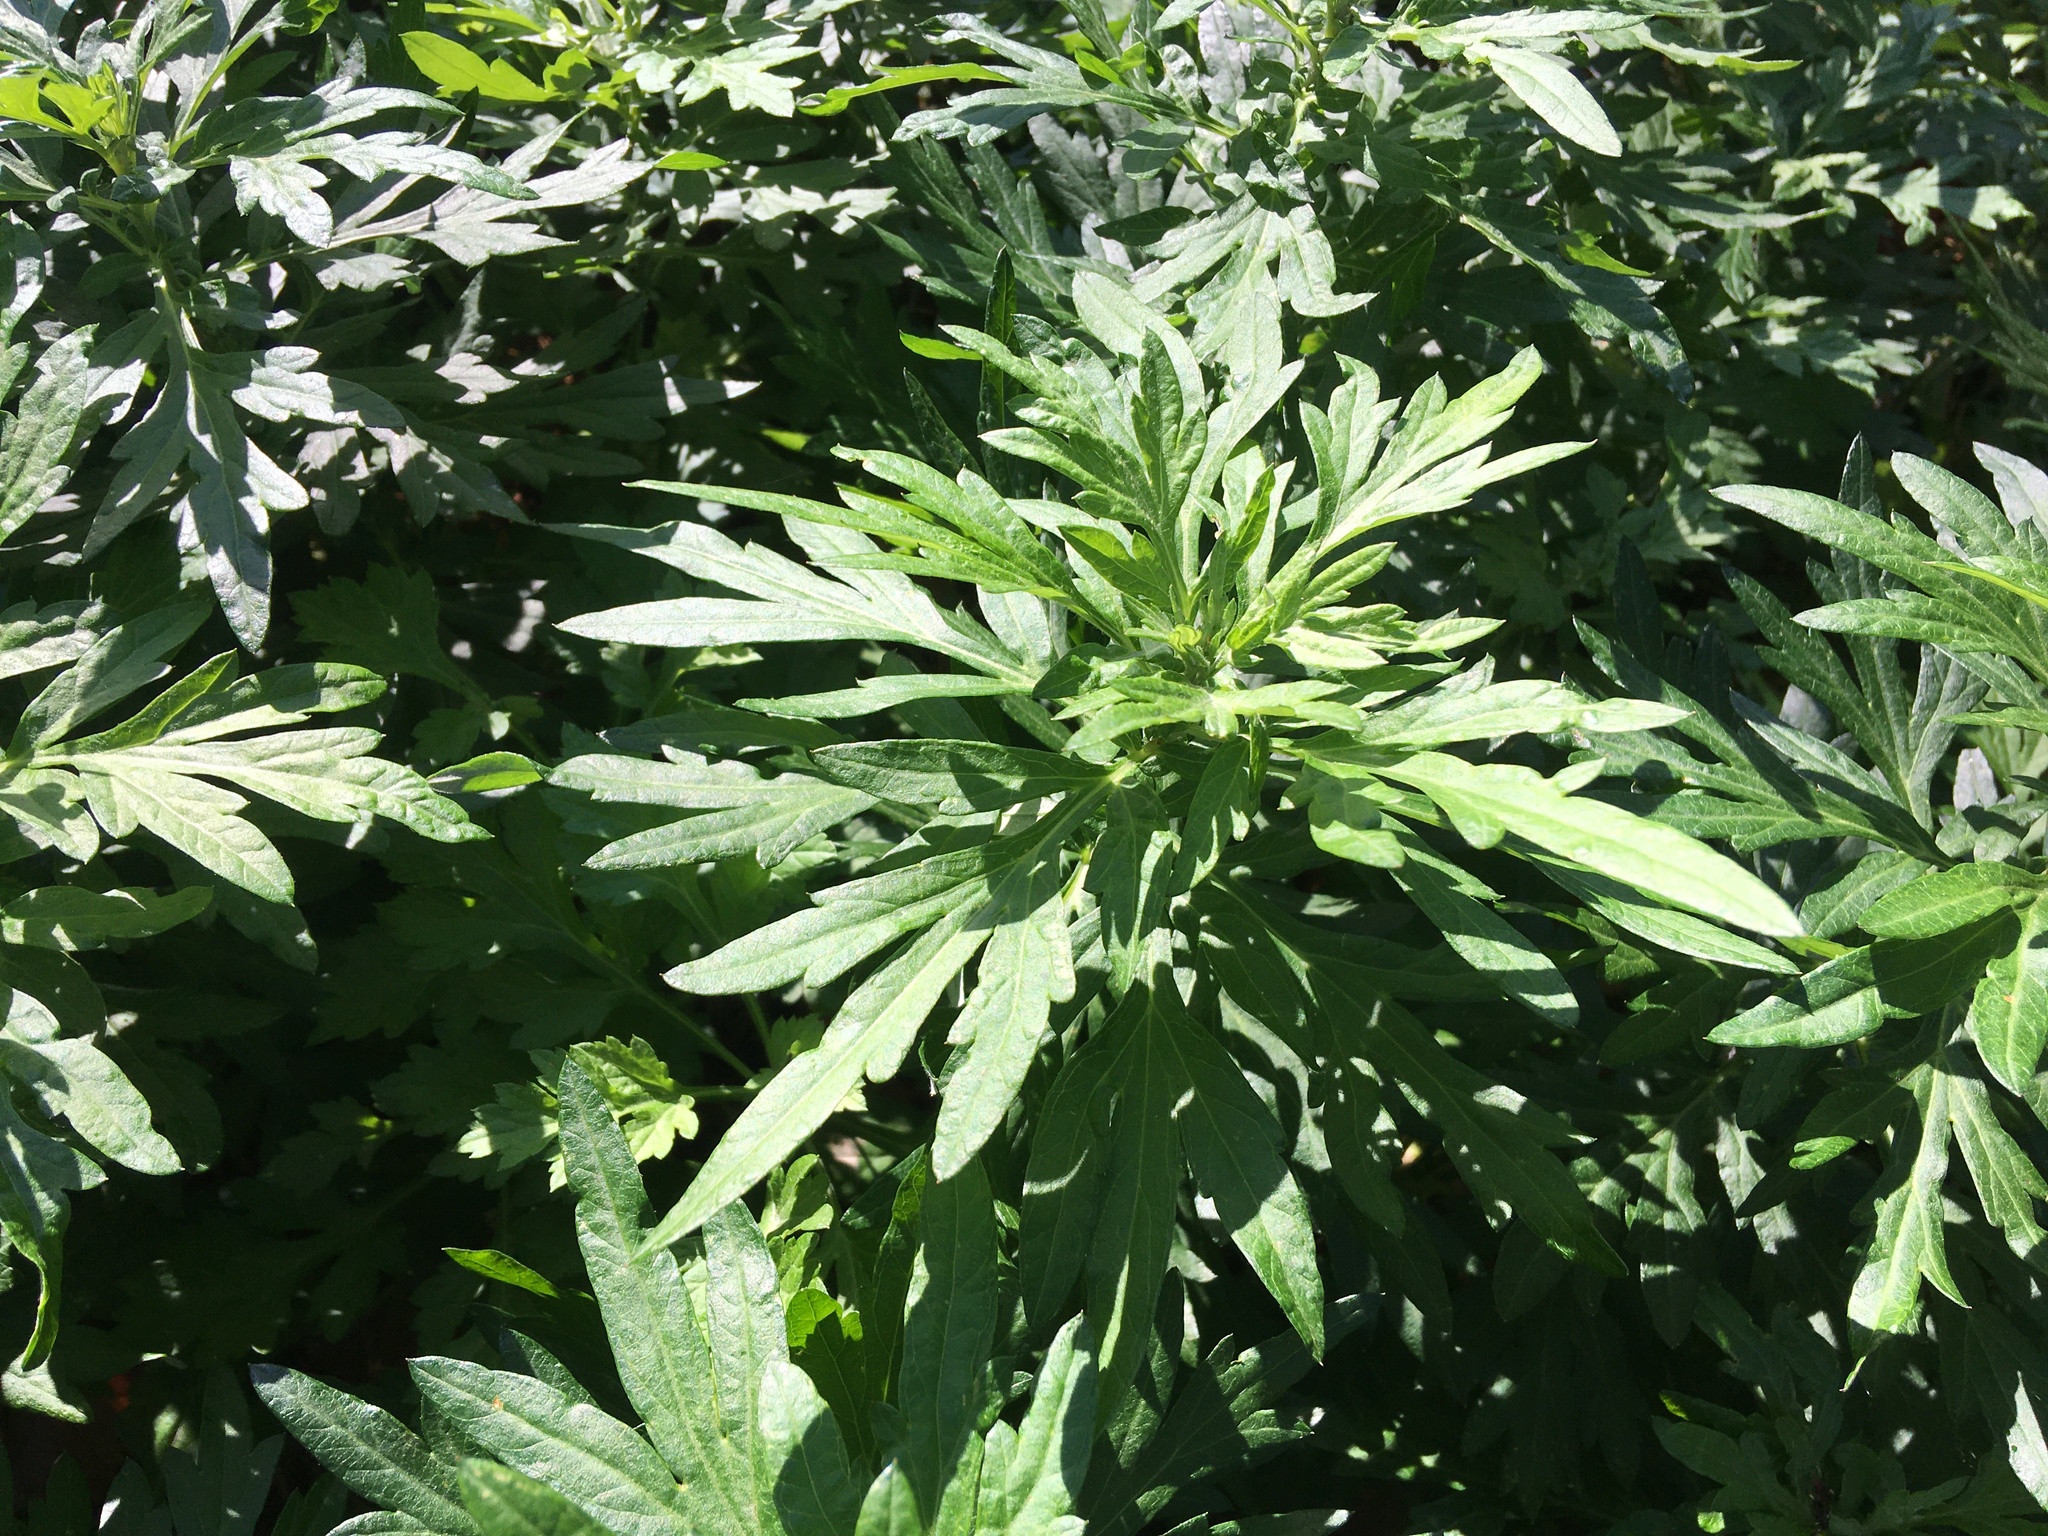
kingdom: Plantae
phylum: Tracheophyta
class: Magnoliopsida
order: Asterales
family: Asteraceae
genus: Artemisia
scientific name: Artemisia vulgaris
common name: Mugwort
